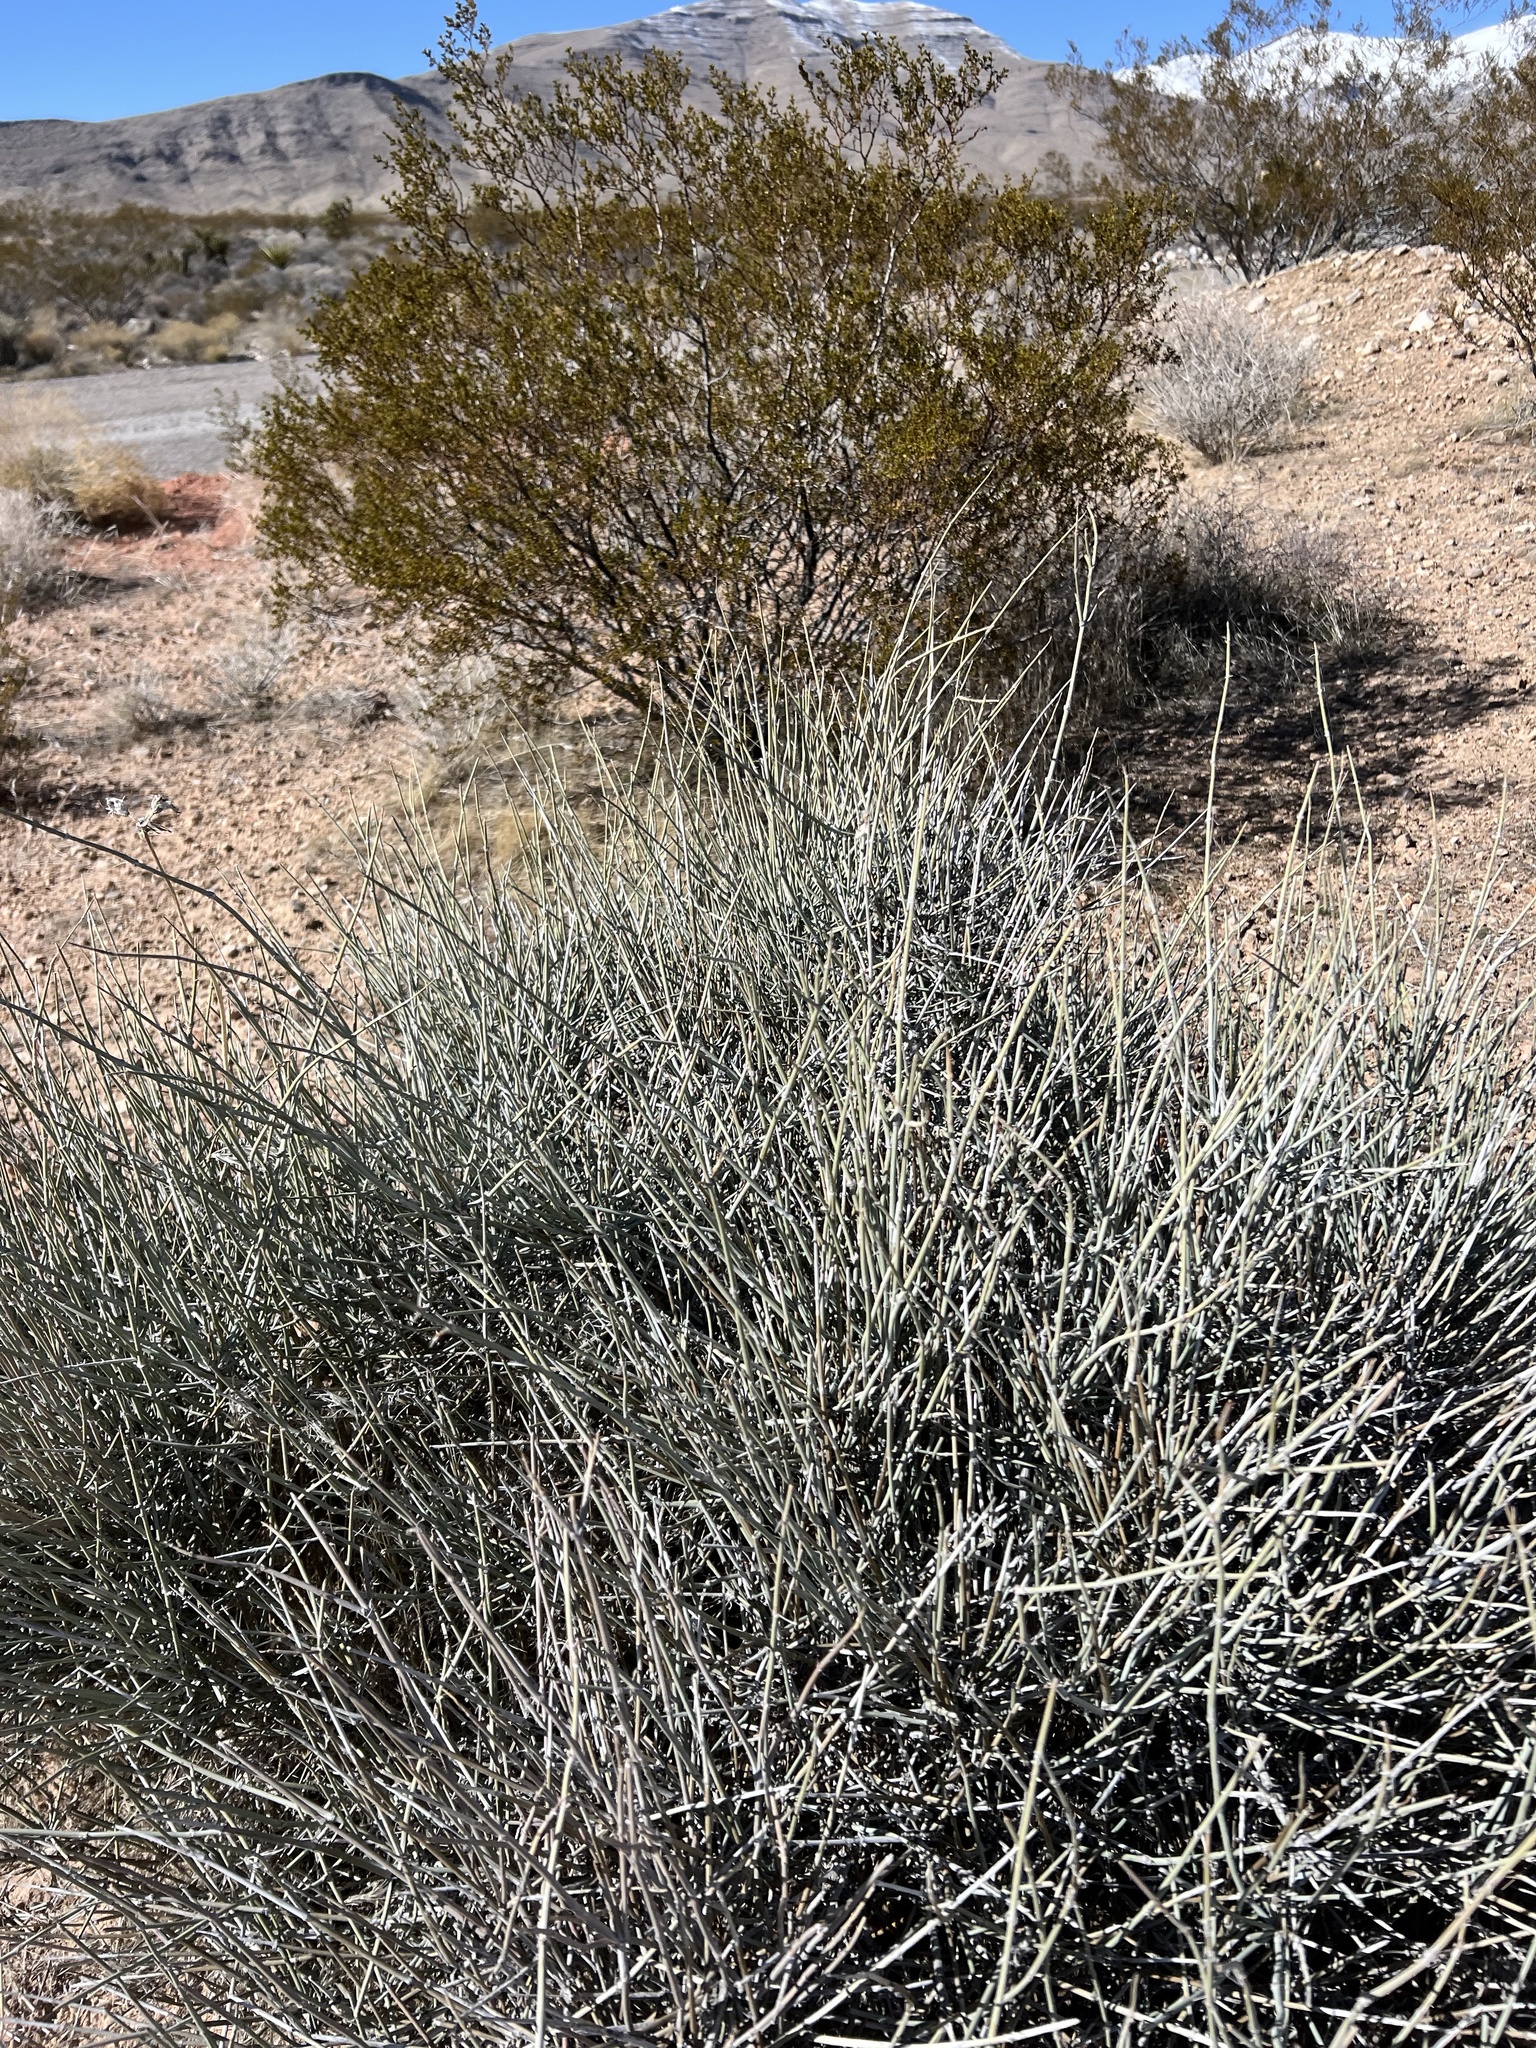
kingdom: Plantae
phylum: Tracheophyta
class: Gnetopsida
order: Ephedrales
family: Ephedraceae
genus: Ephedra
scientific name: Ephedra nevadensis
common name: Gray ephedra
